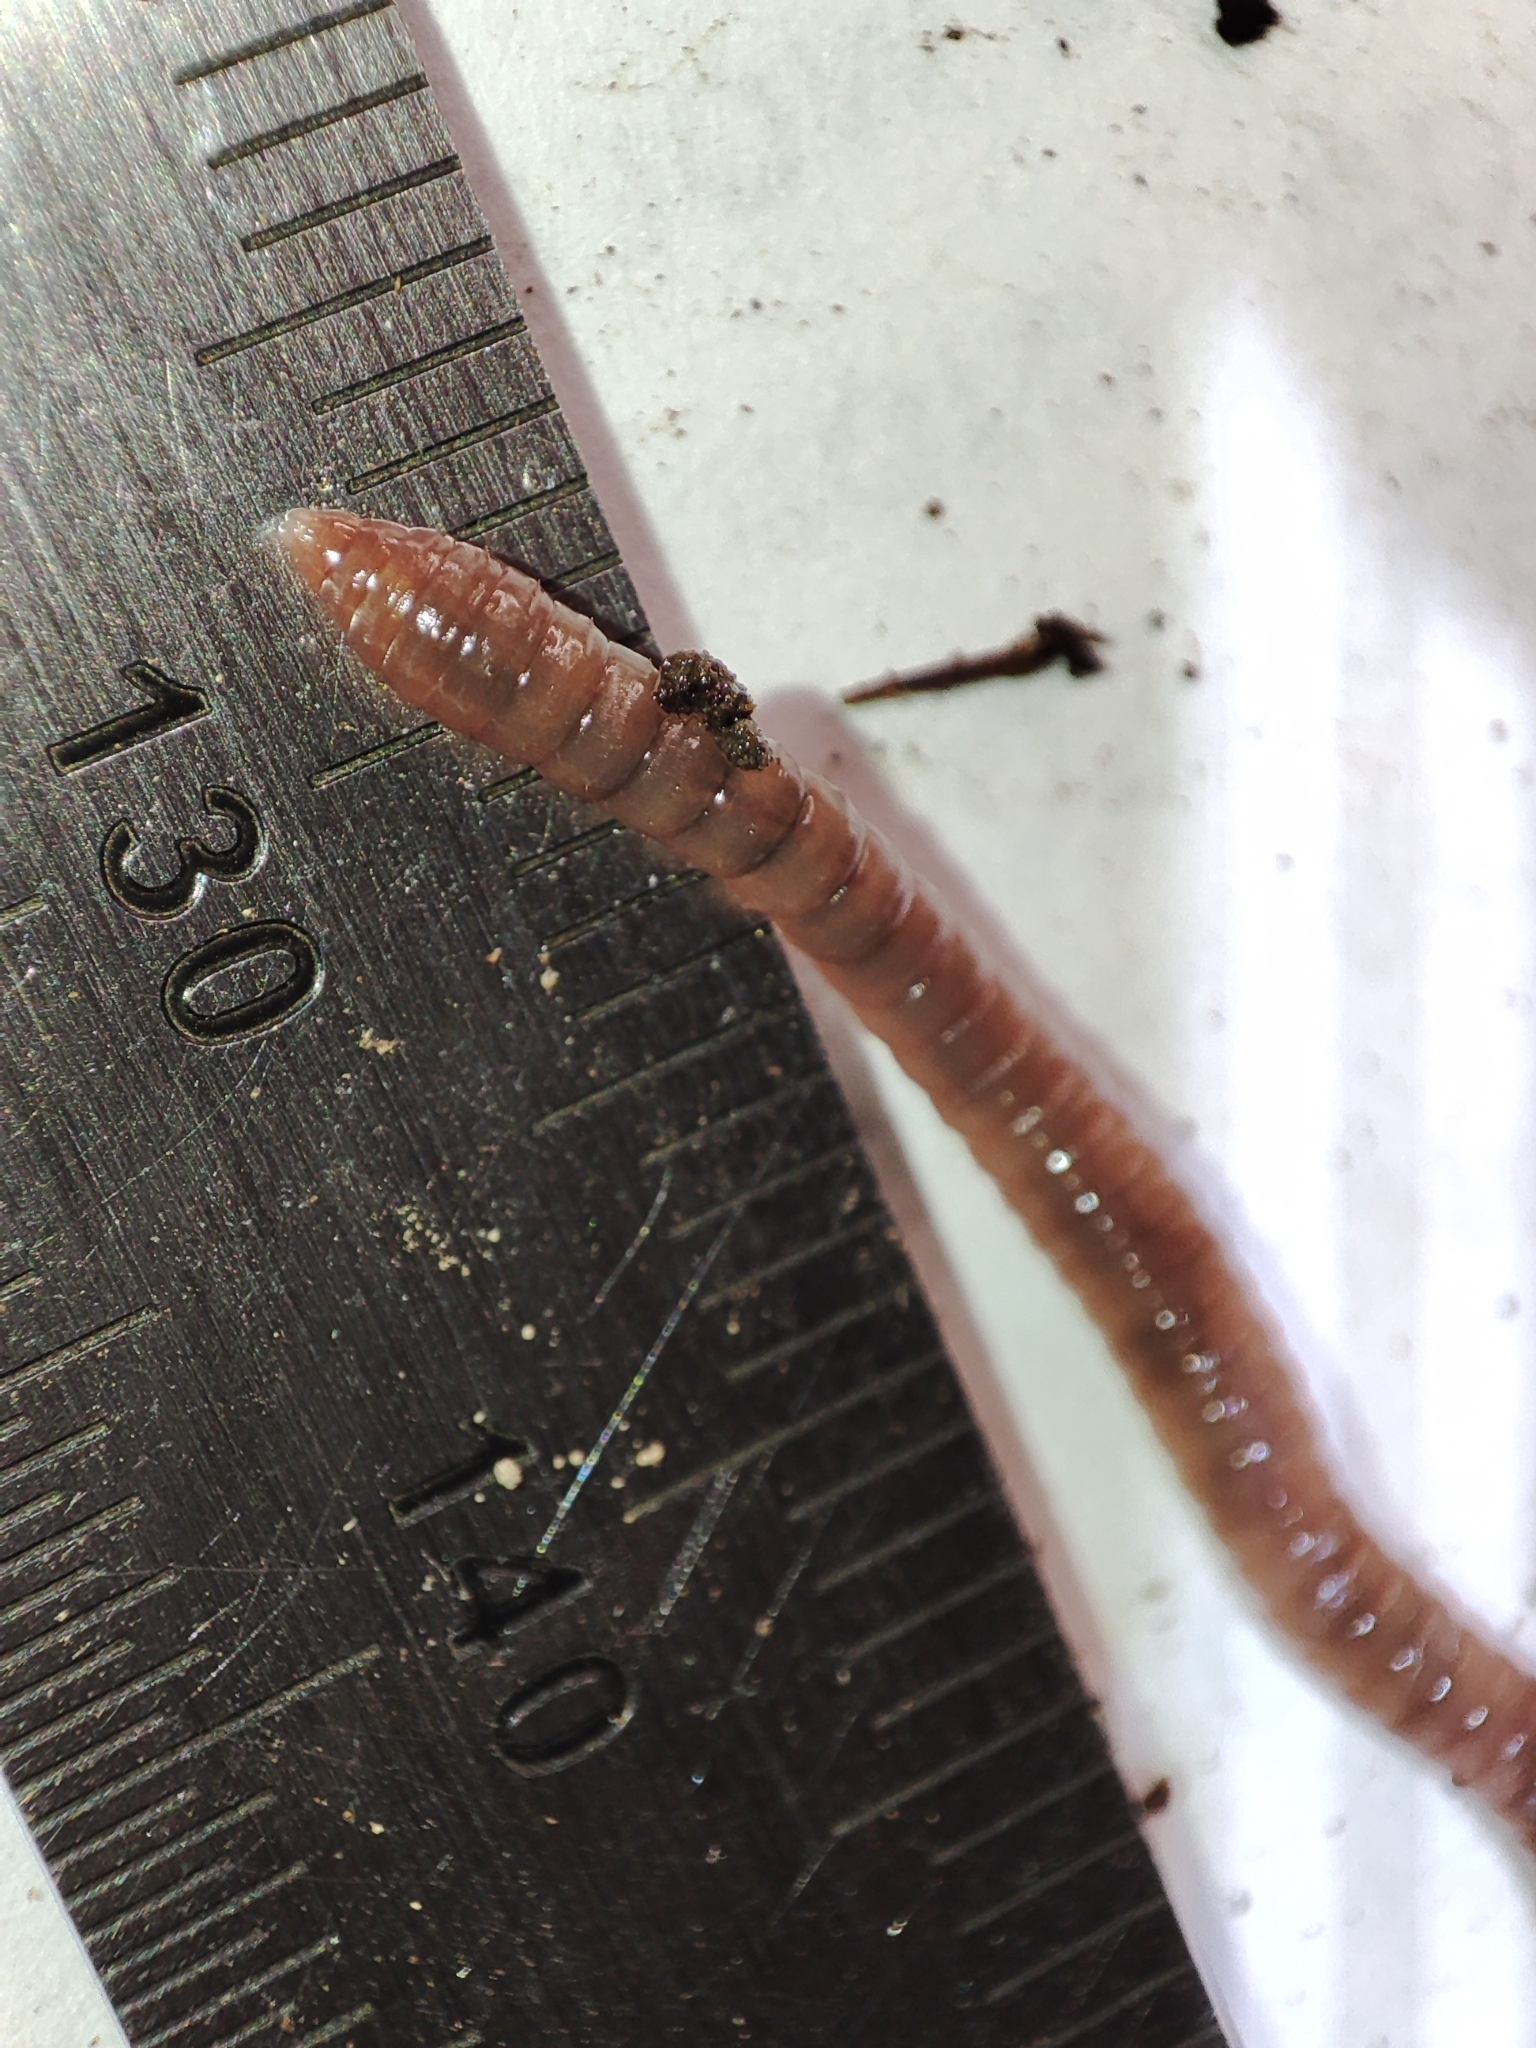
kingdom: Animalia
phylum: Annelida
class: Clitellata
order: Crassiclitellata
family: Lumbricidae
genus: Dendrobaena
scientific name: Dendrobaena octaedra
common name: Octagonal-tail worm
